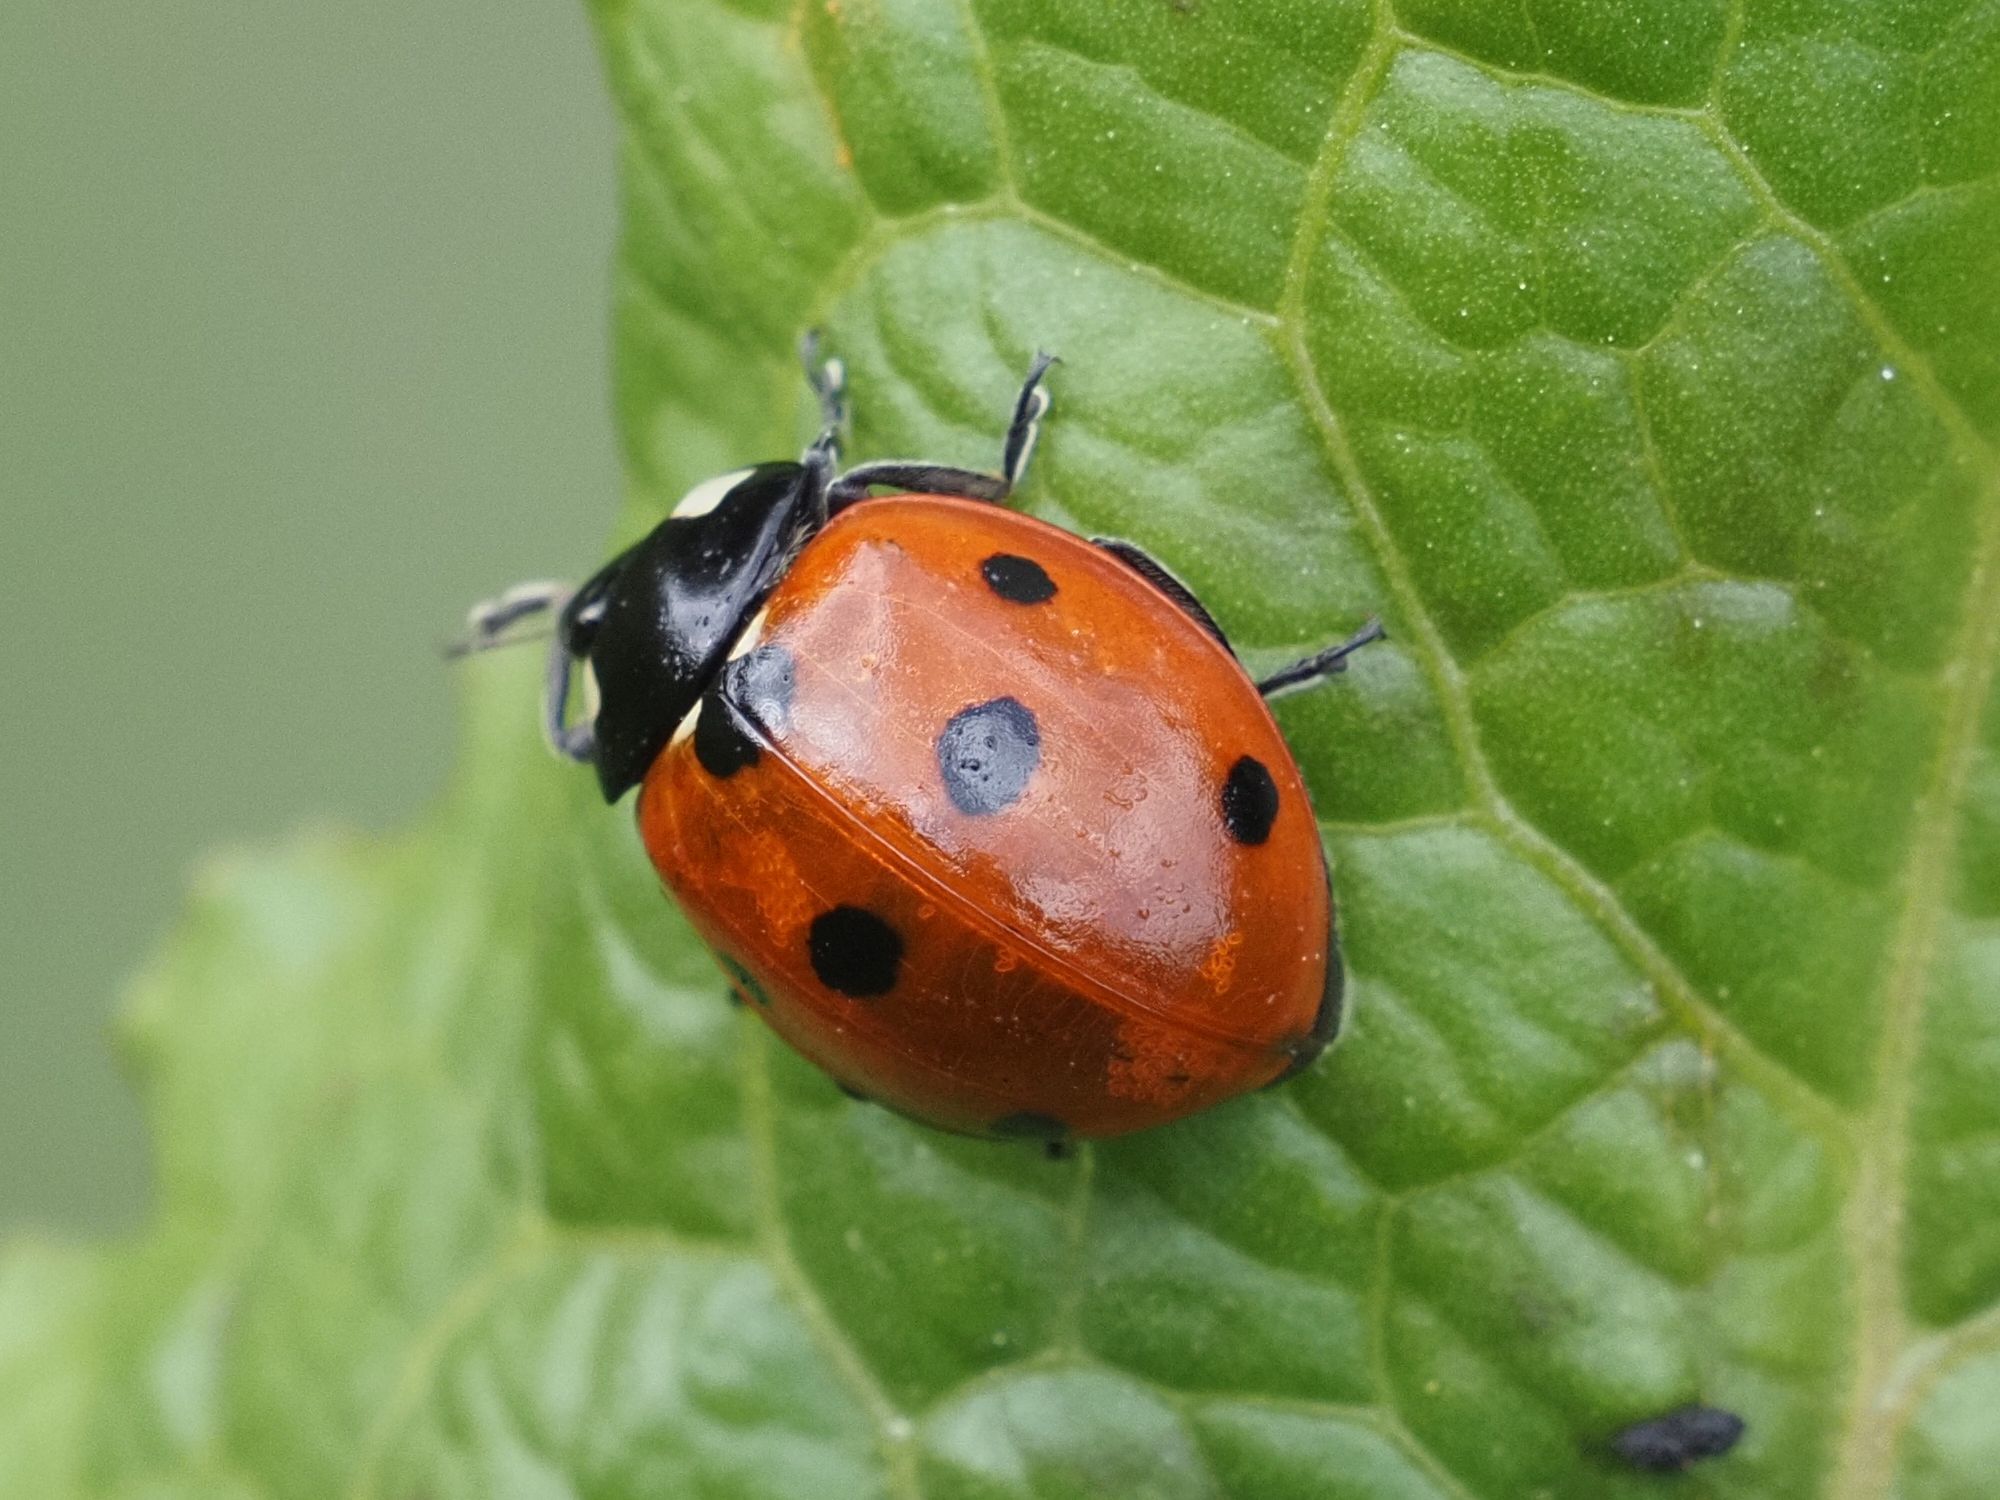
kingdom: Animalia
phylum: Arthropoda
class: Insecta
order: Coleoptera
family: Coccinellidae
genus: Coccinella
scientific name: Coccinella septempunctata
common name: Sevenspotted lady beetle
